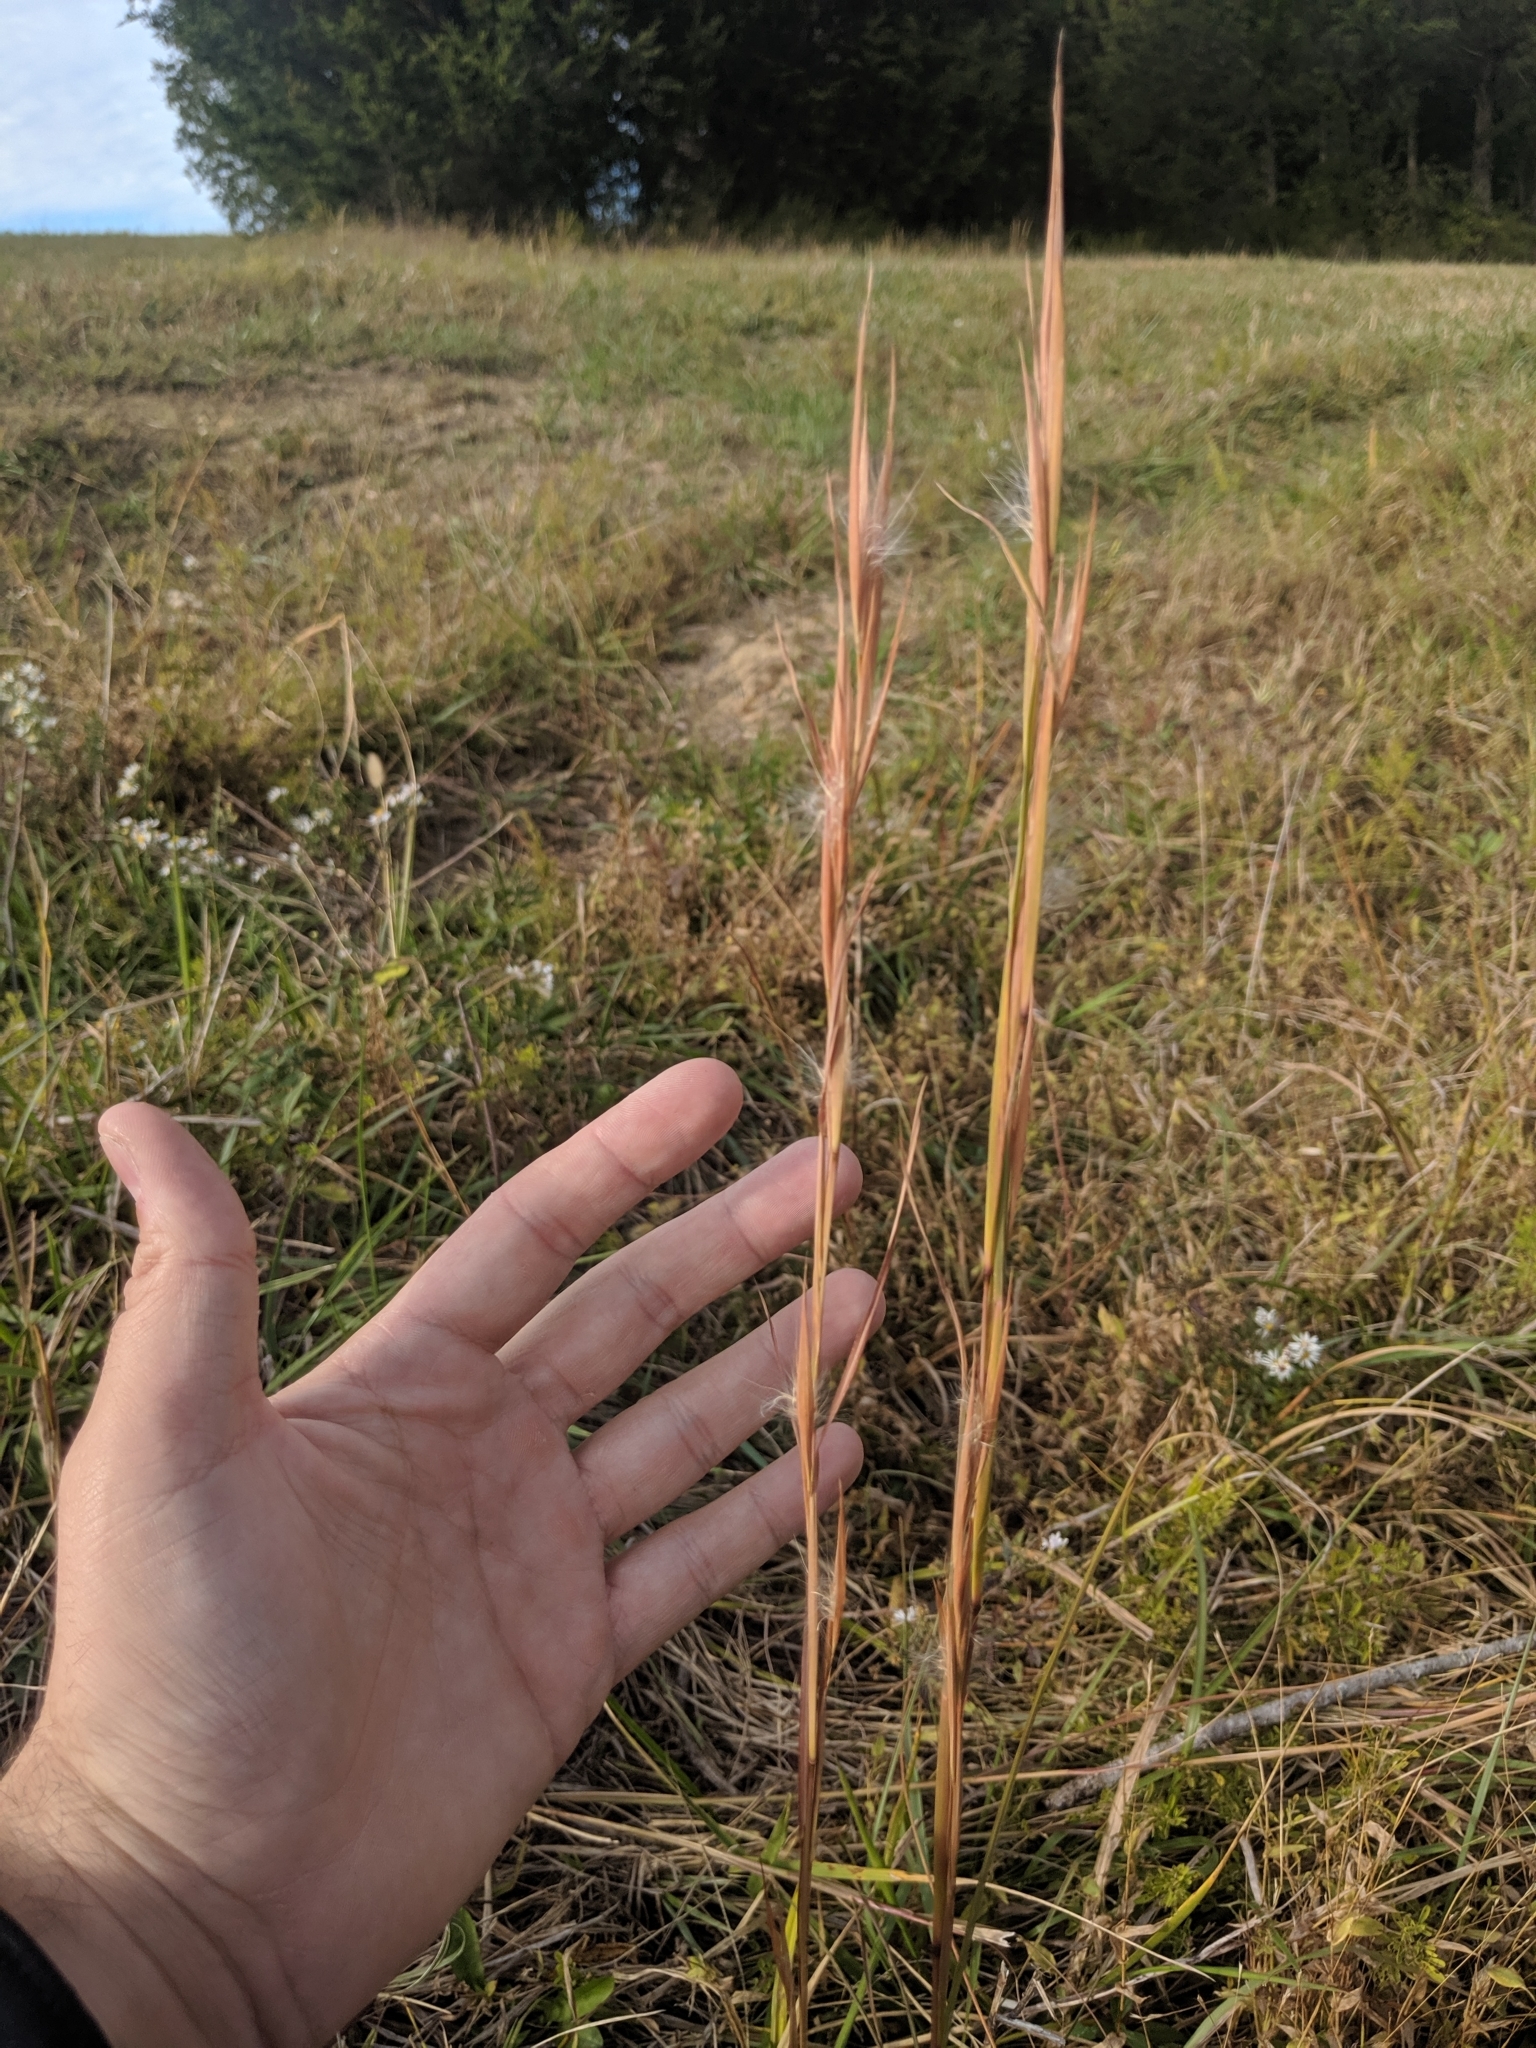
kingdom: Plantae
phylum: Tracheophyta
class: Liliopsida
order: Poales
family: Poaceae
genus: Andropogon
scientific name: Andropogon virginicus
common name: Broomsedge bluestem
